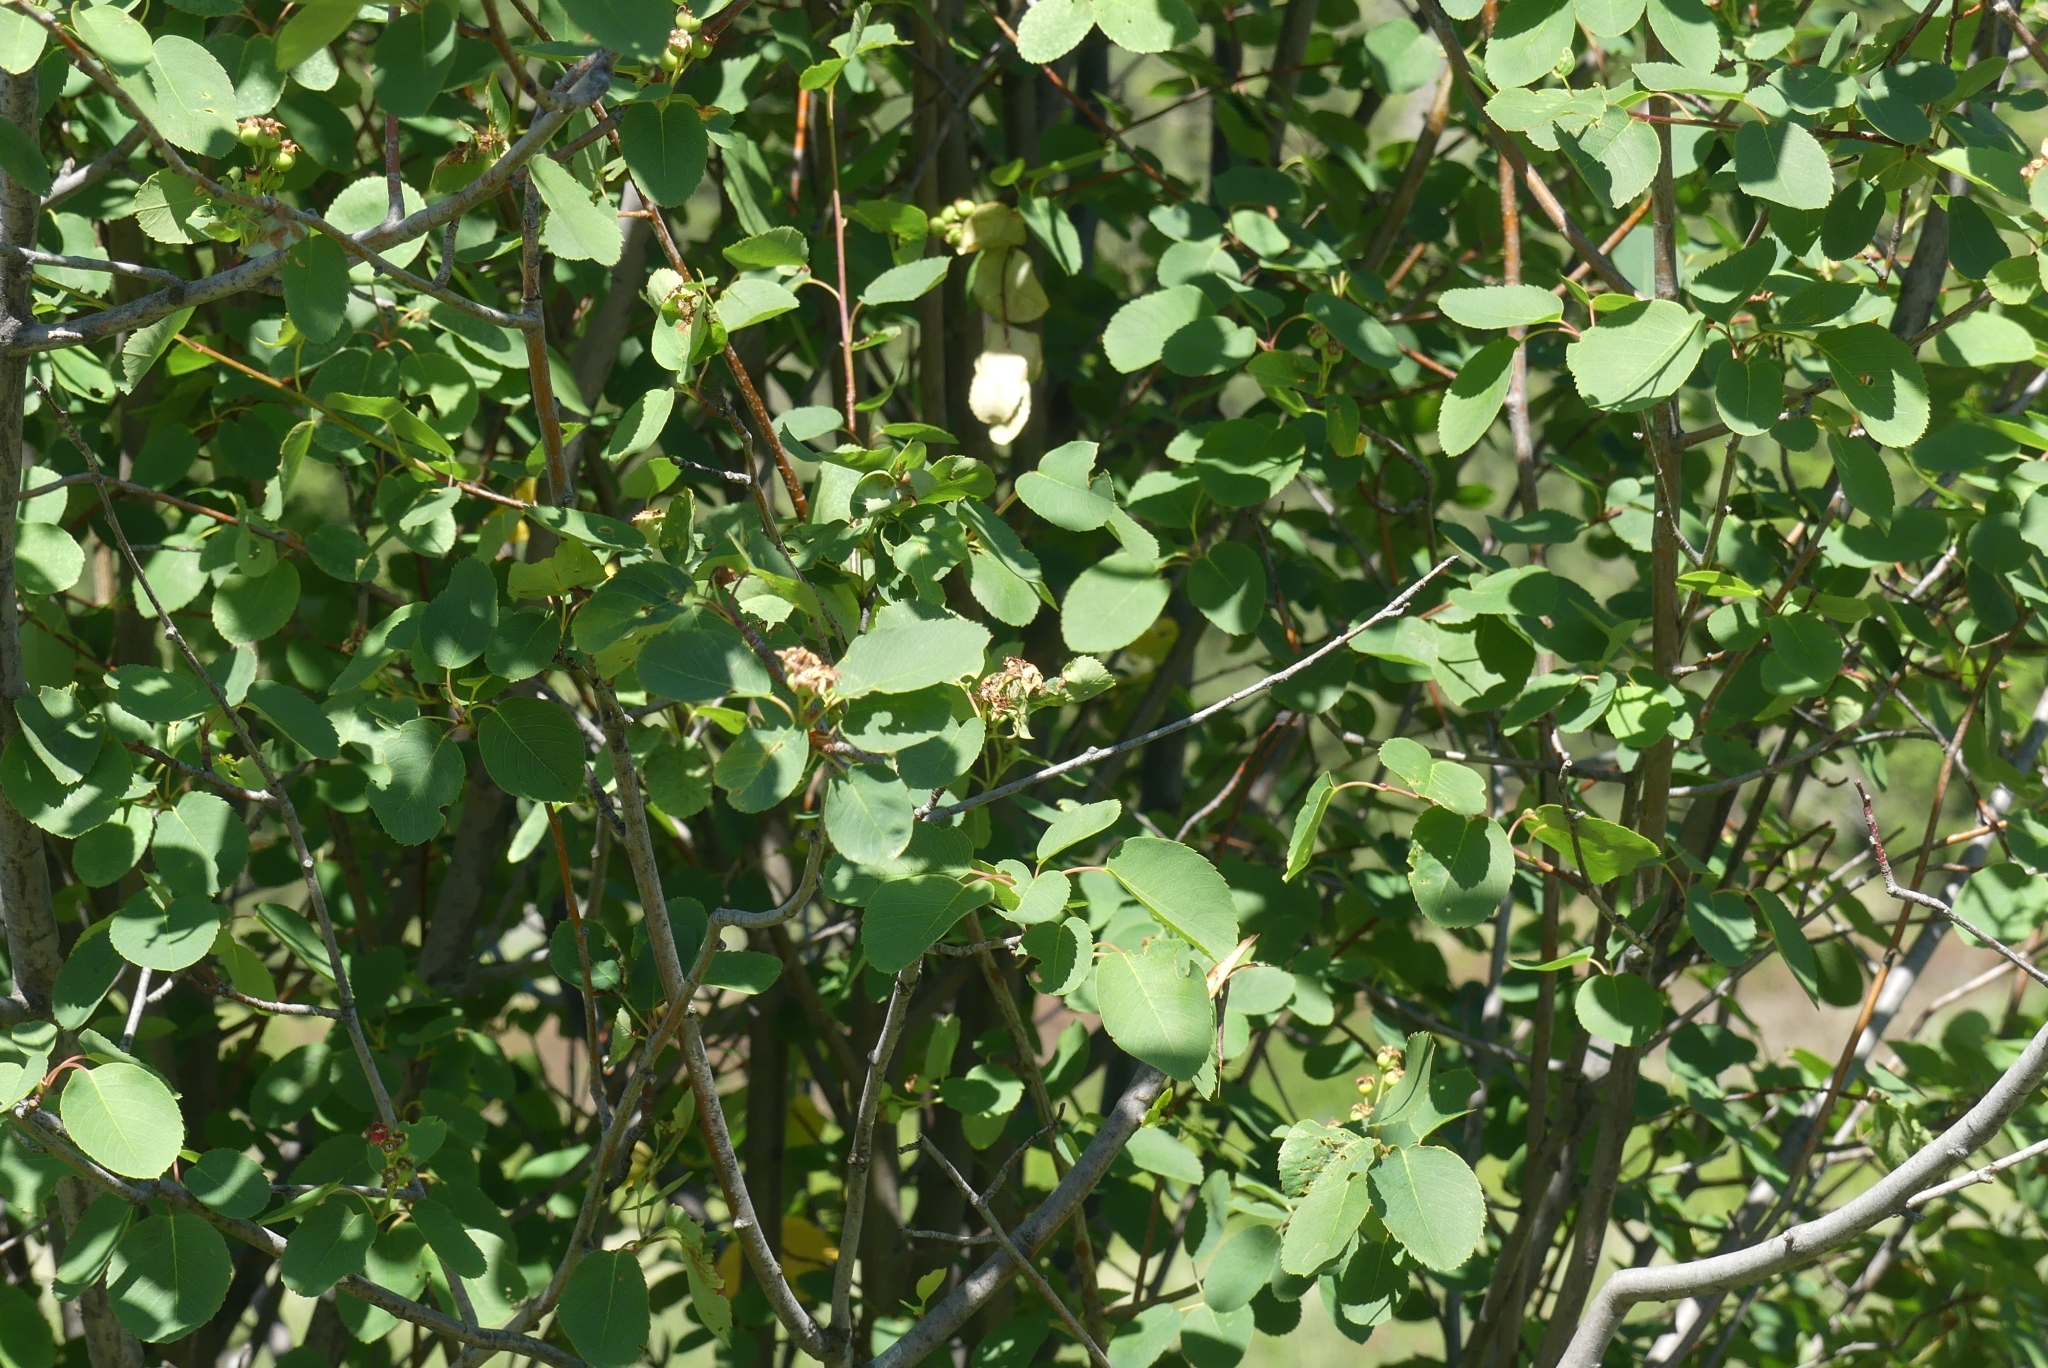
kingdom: Plantae
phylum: Tracheophyta
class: Magnoliopsida
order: Rosales
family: Rosaceae
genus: Amelanchier
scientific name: Amelanchier alnifolia
